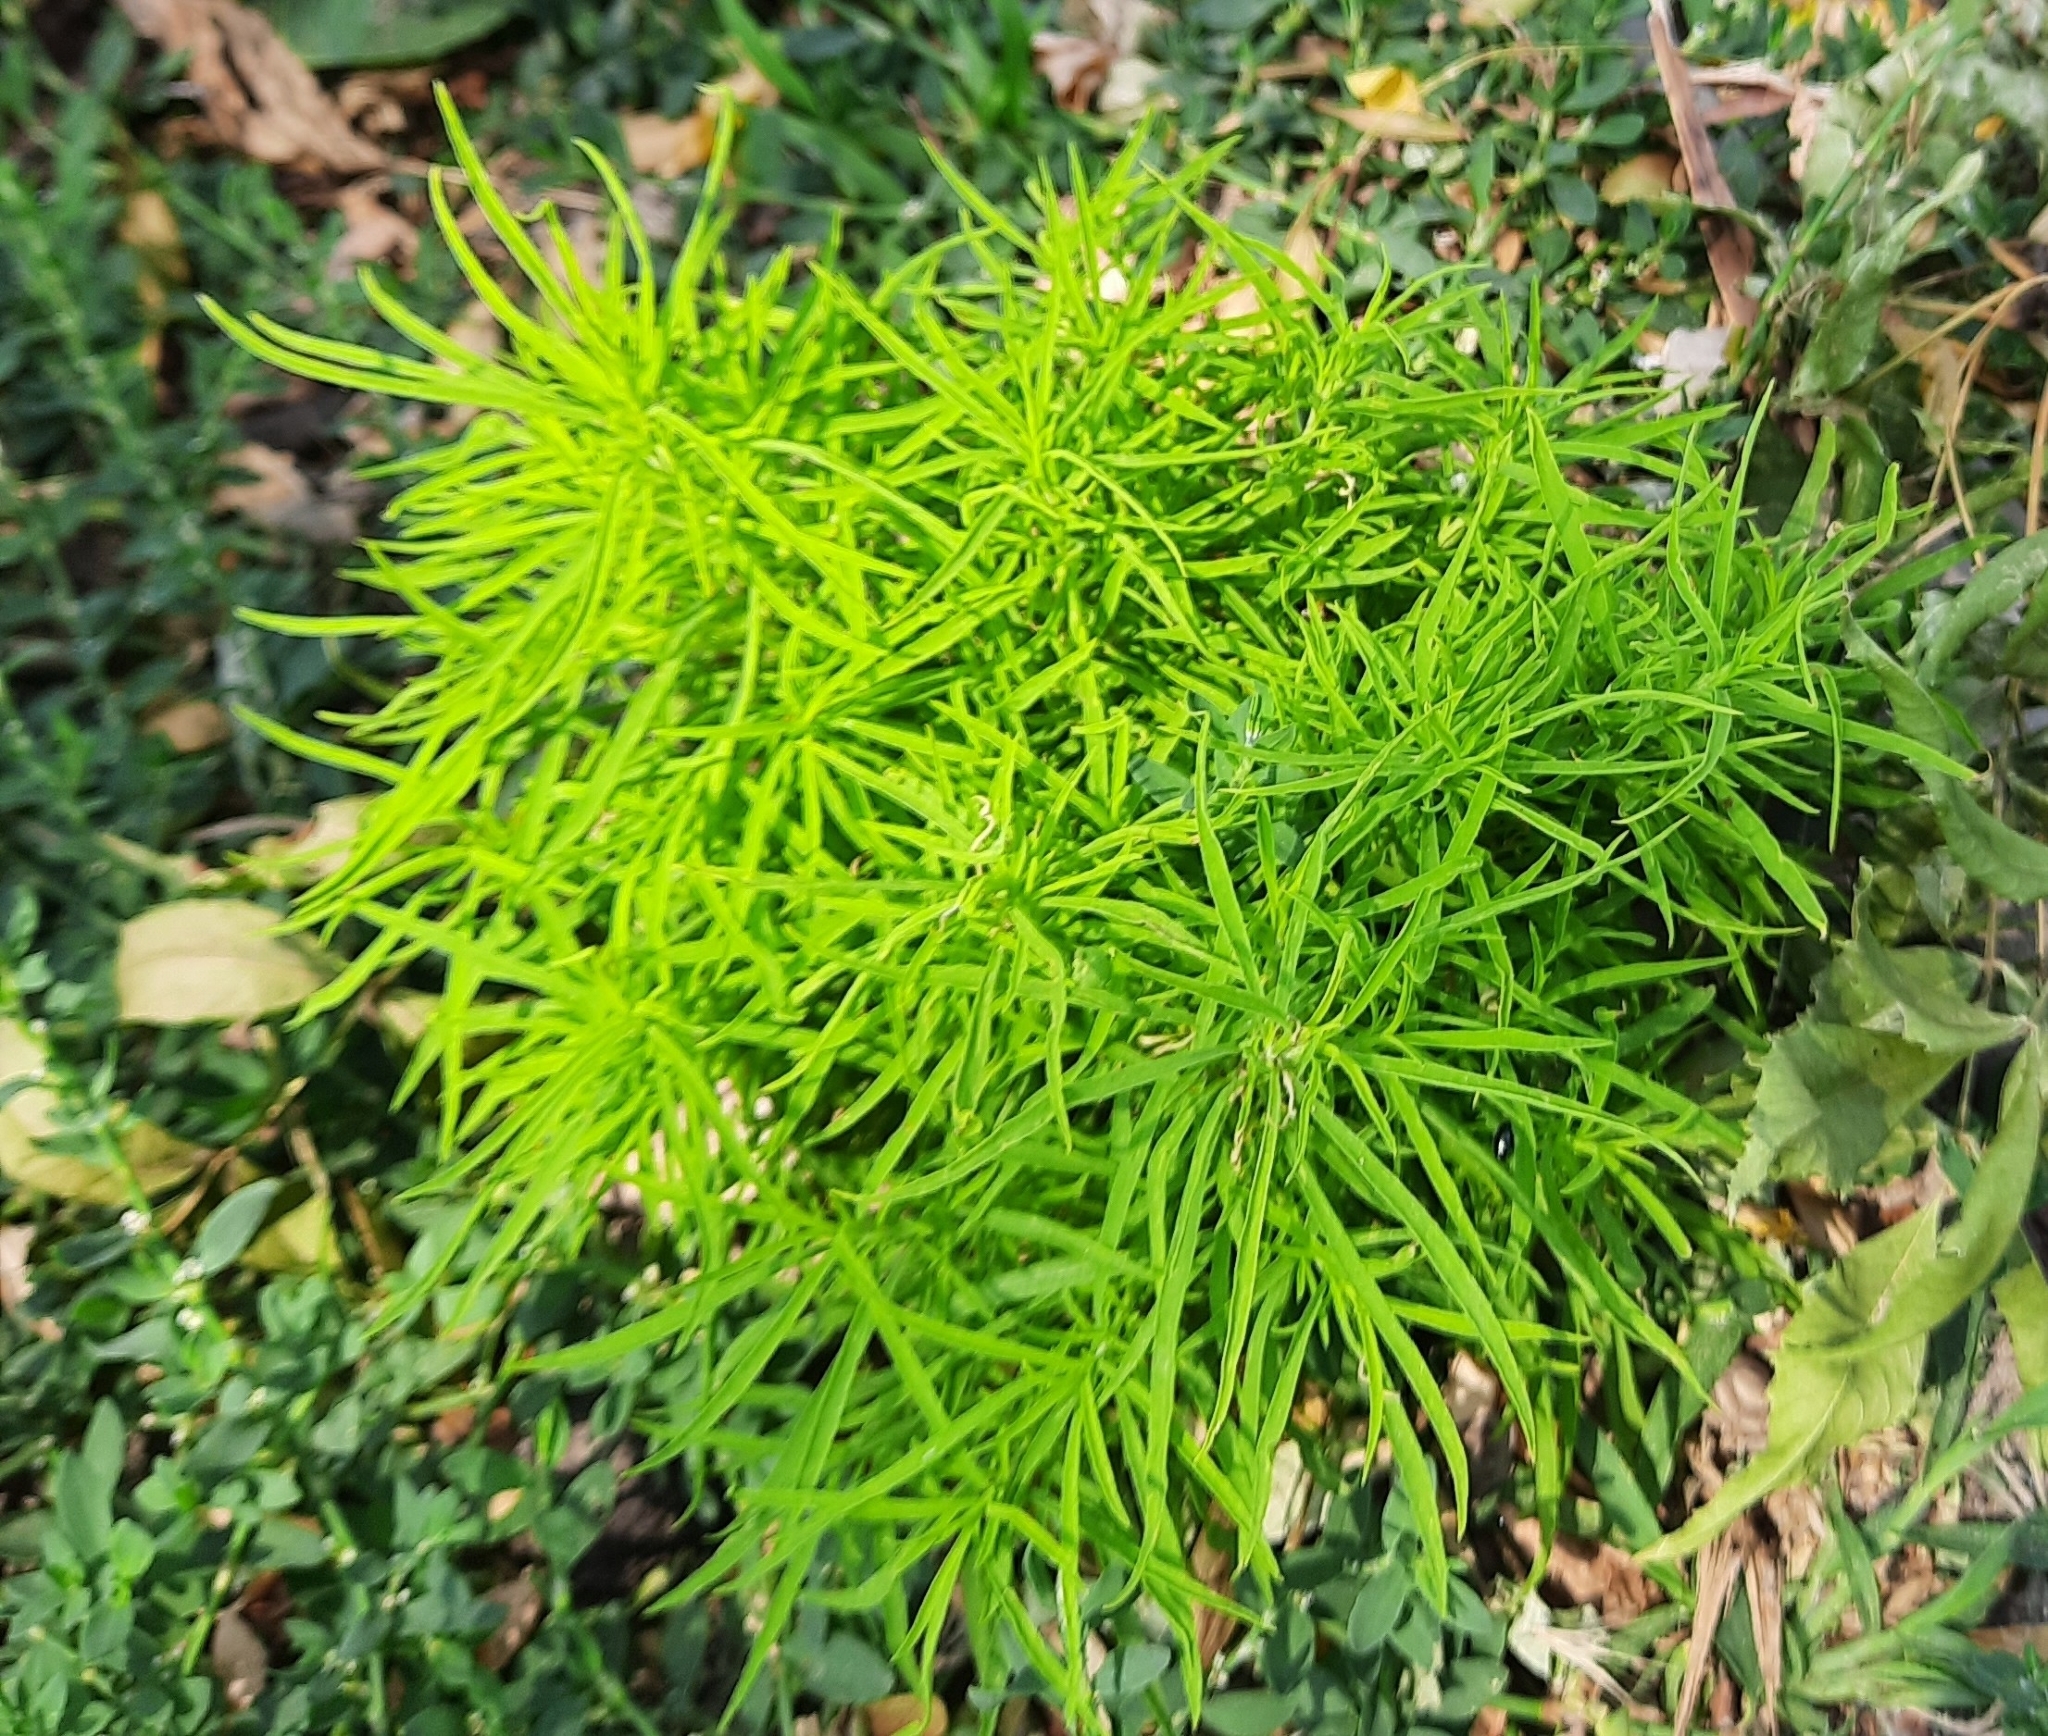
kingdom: Plantae
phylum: Tracheophyta
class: Magnoliopsida
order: Caryophyllales
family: Amaranthaceae
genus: Bassia
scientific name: Bassia scoparia
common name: Belvedere
